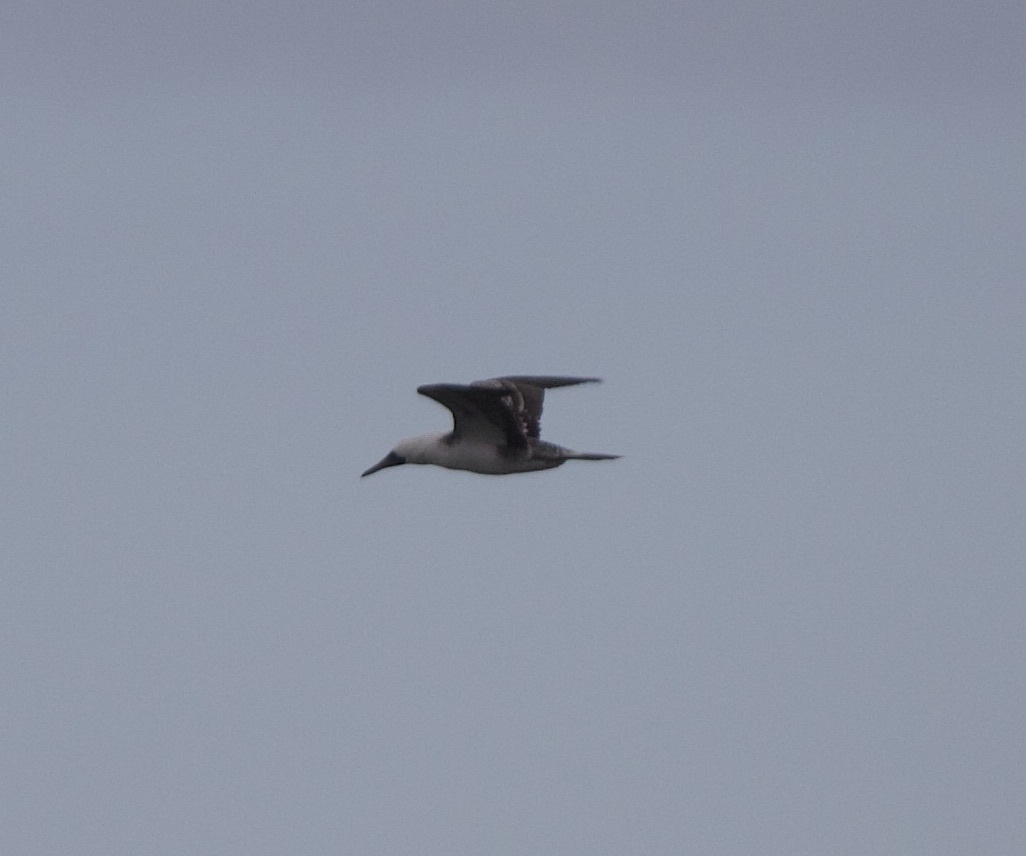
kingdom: Animalia
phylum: Chordata
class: Aves
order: Suliformes
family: Sulidae
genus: Sula
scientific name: Sula variegata
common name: Peruvian booby
